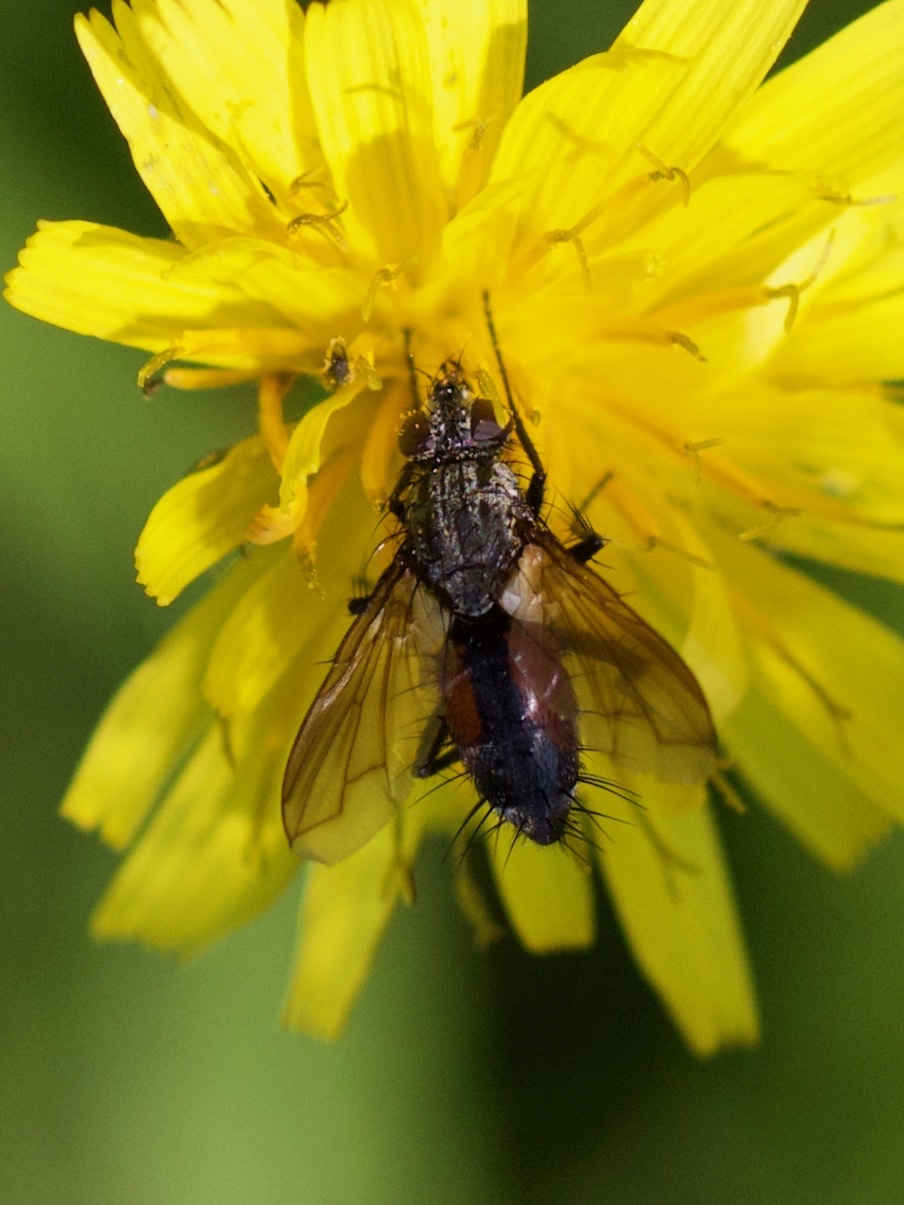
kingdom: Animalia
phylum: Arthropoda
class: Insecta
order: Diptera
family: Tachinidae
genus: Eriothrix
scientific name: Eriothrix rufomaculatus
